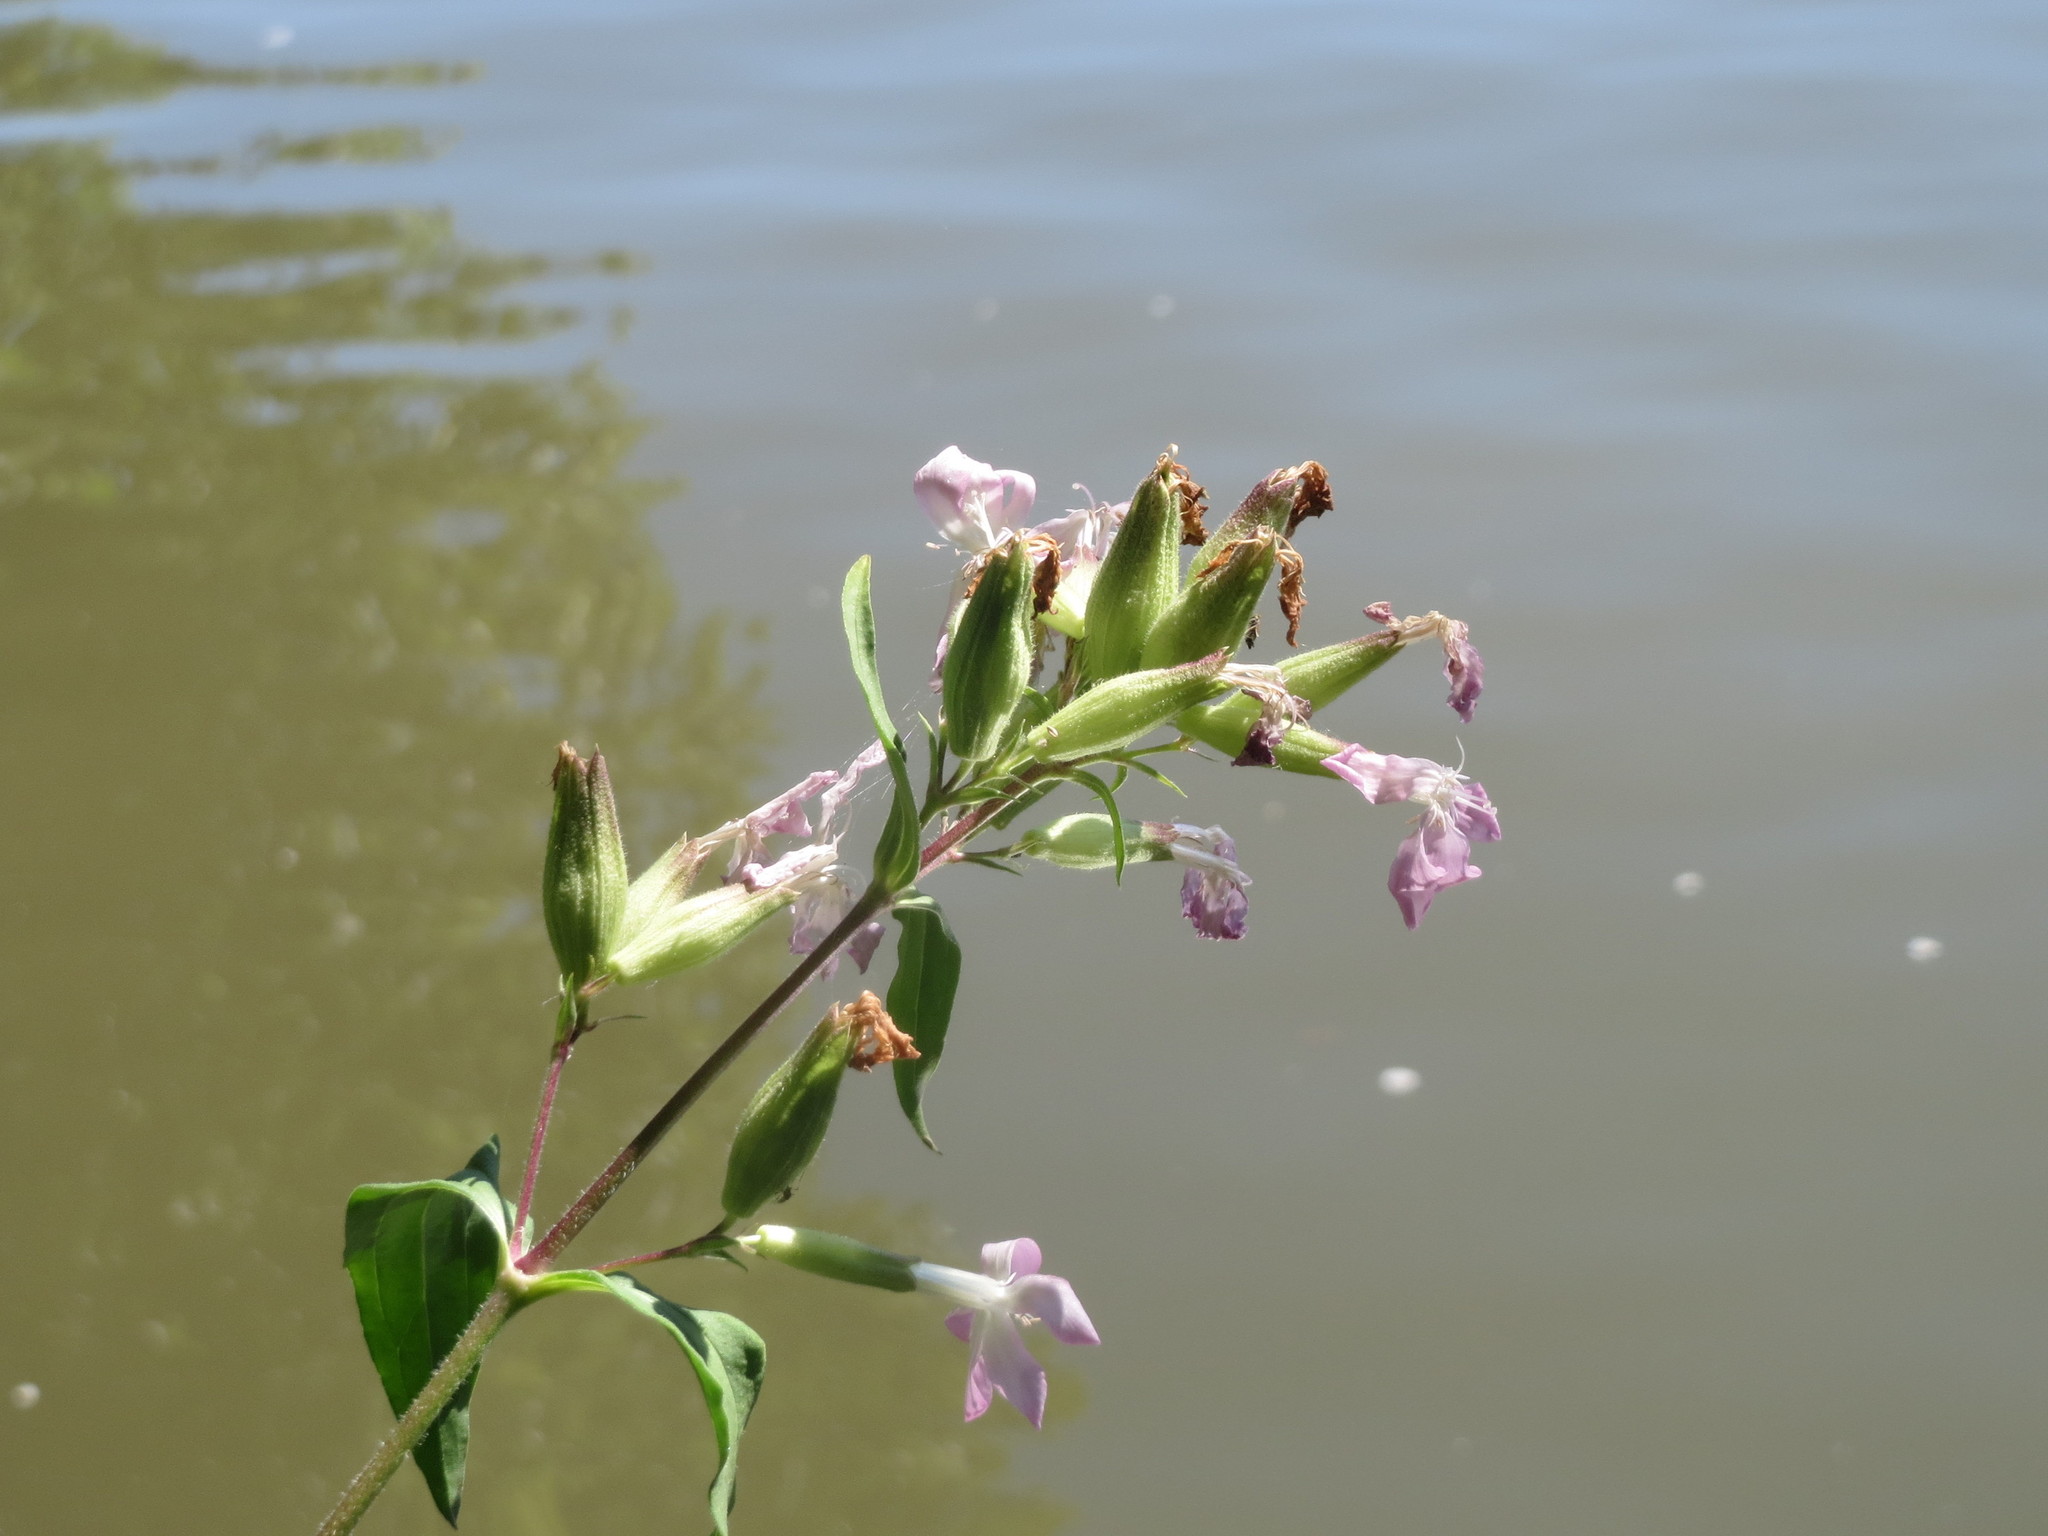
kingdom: Plantae
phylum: Tracheophyta
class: Magnoliopsida
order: Caryophyllales
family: Caryophyllaceae
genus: Saponaria
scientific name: Saponaria officinalis
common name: Soapwort
